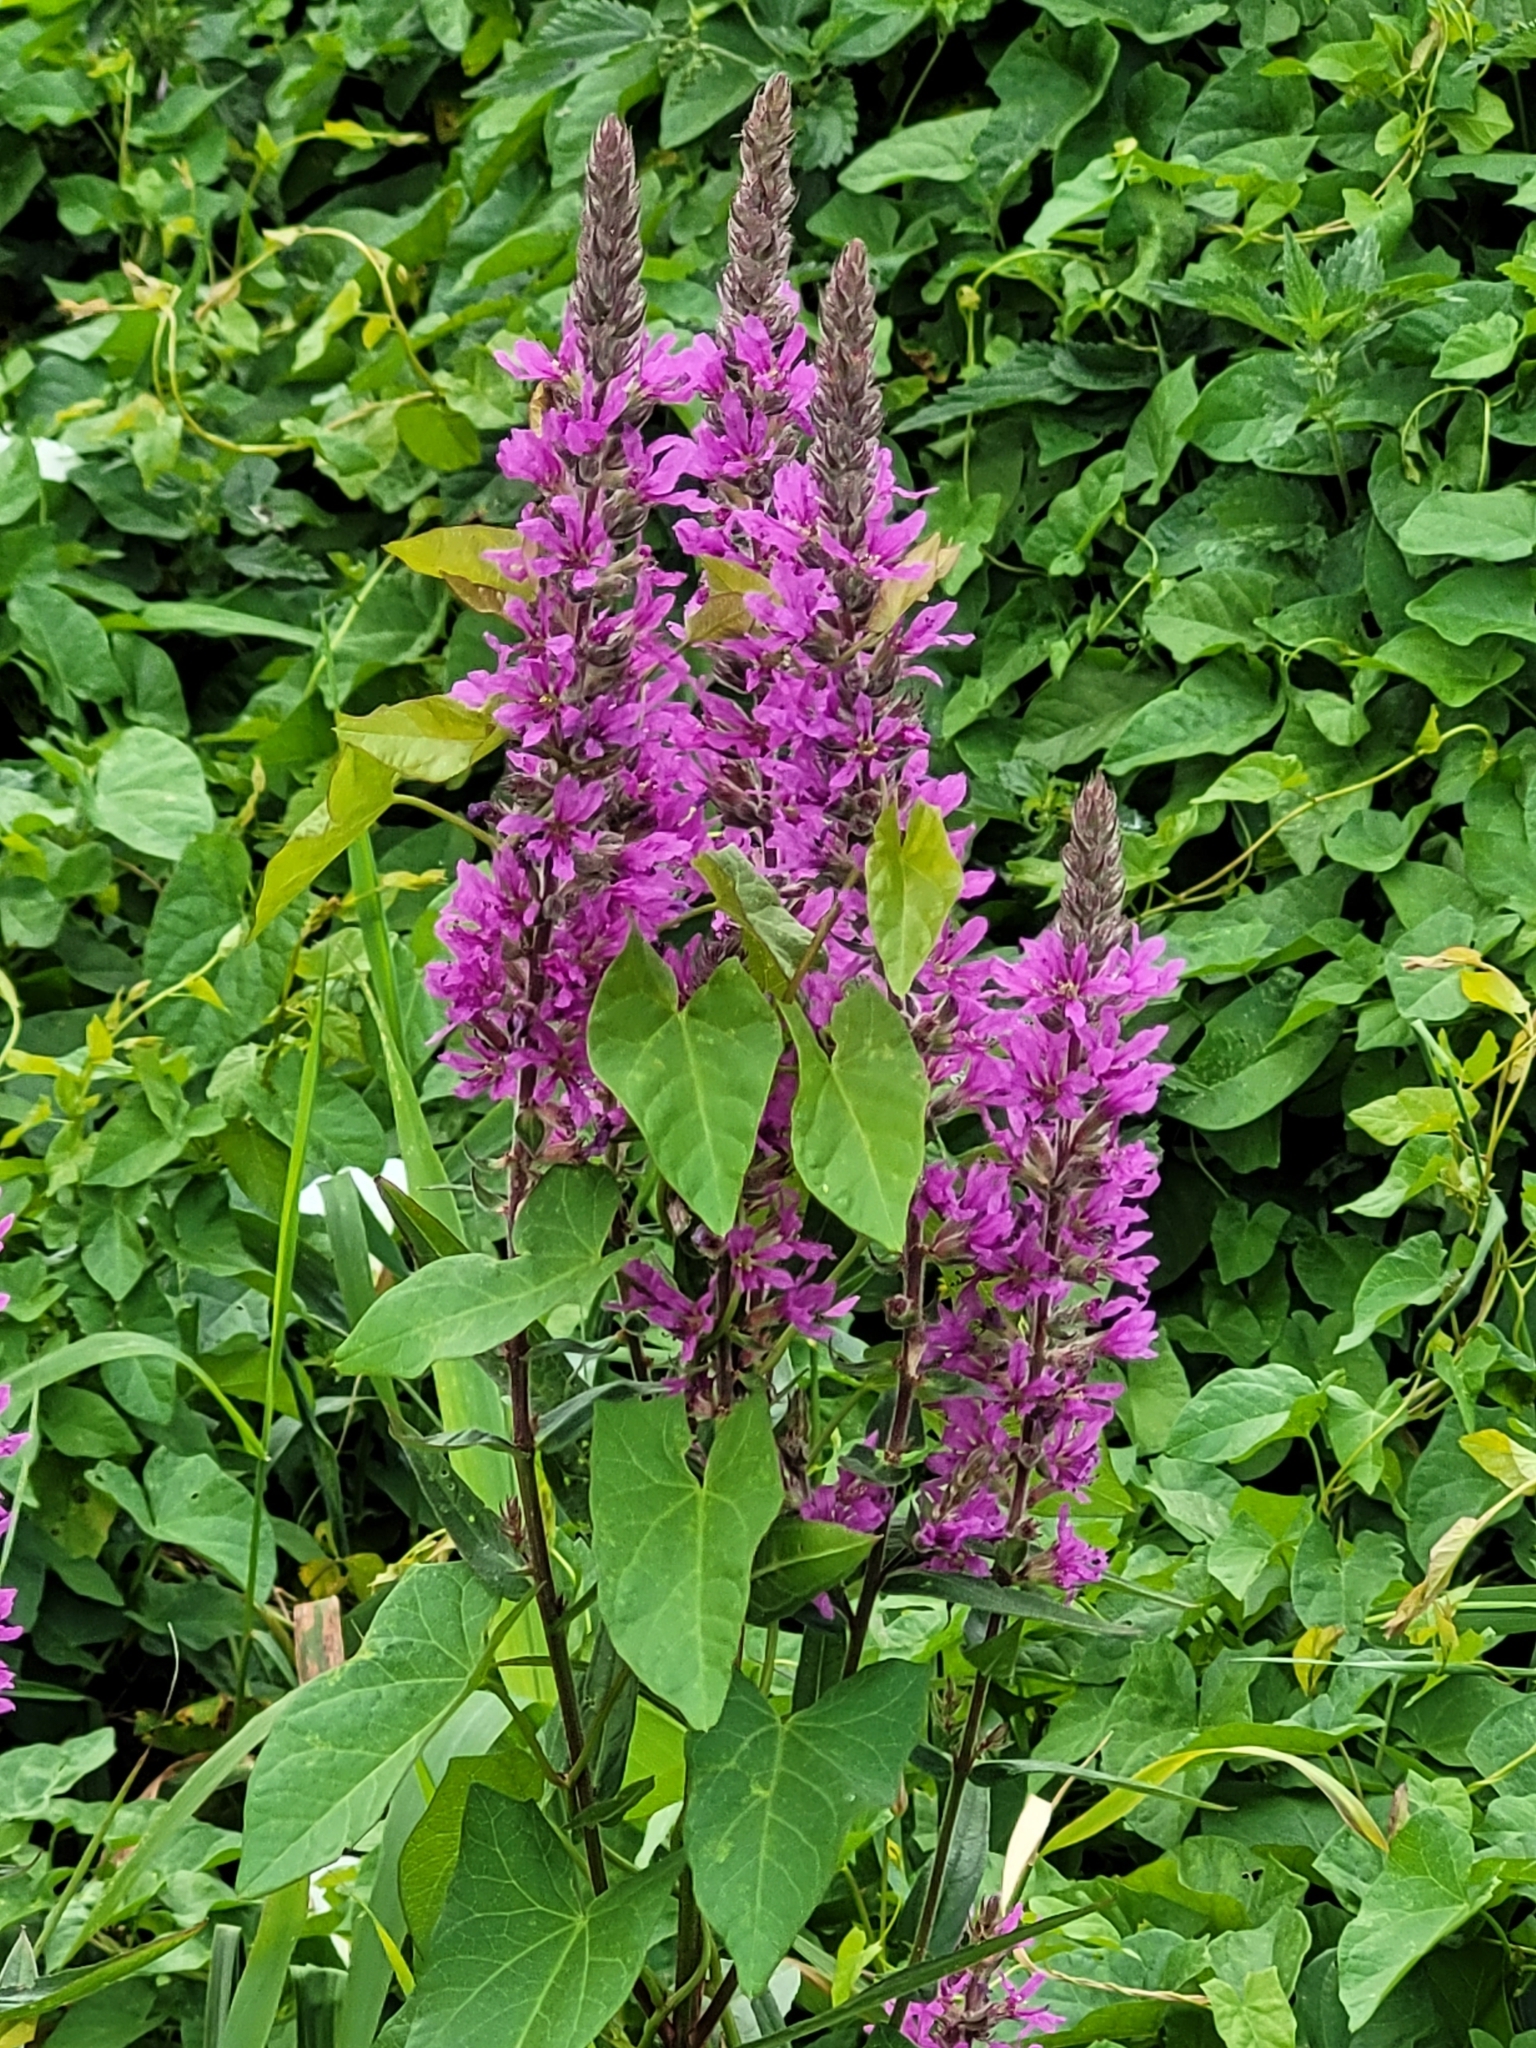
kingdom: Plantae
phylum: Tracheophyta
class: Magnoliopsida
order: Myrtales
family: Lythraceae
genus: Lythrum
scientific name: Lythrum salicaria
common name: Purple loosestrife
